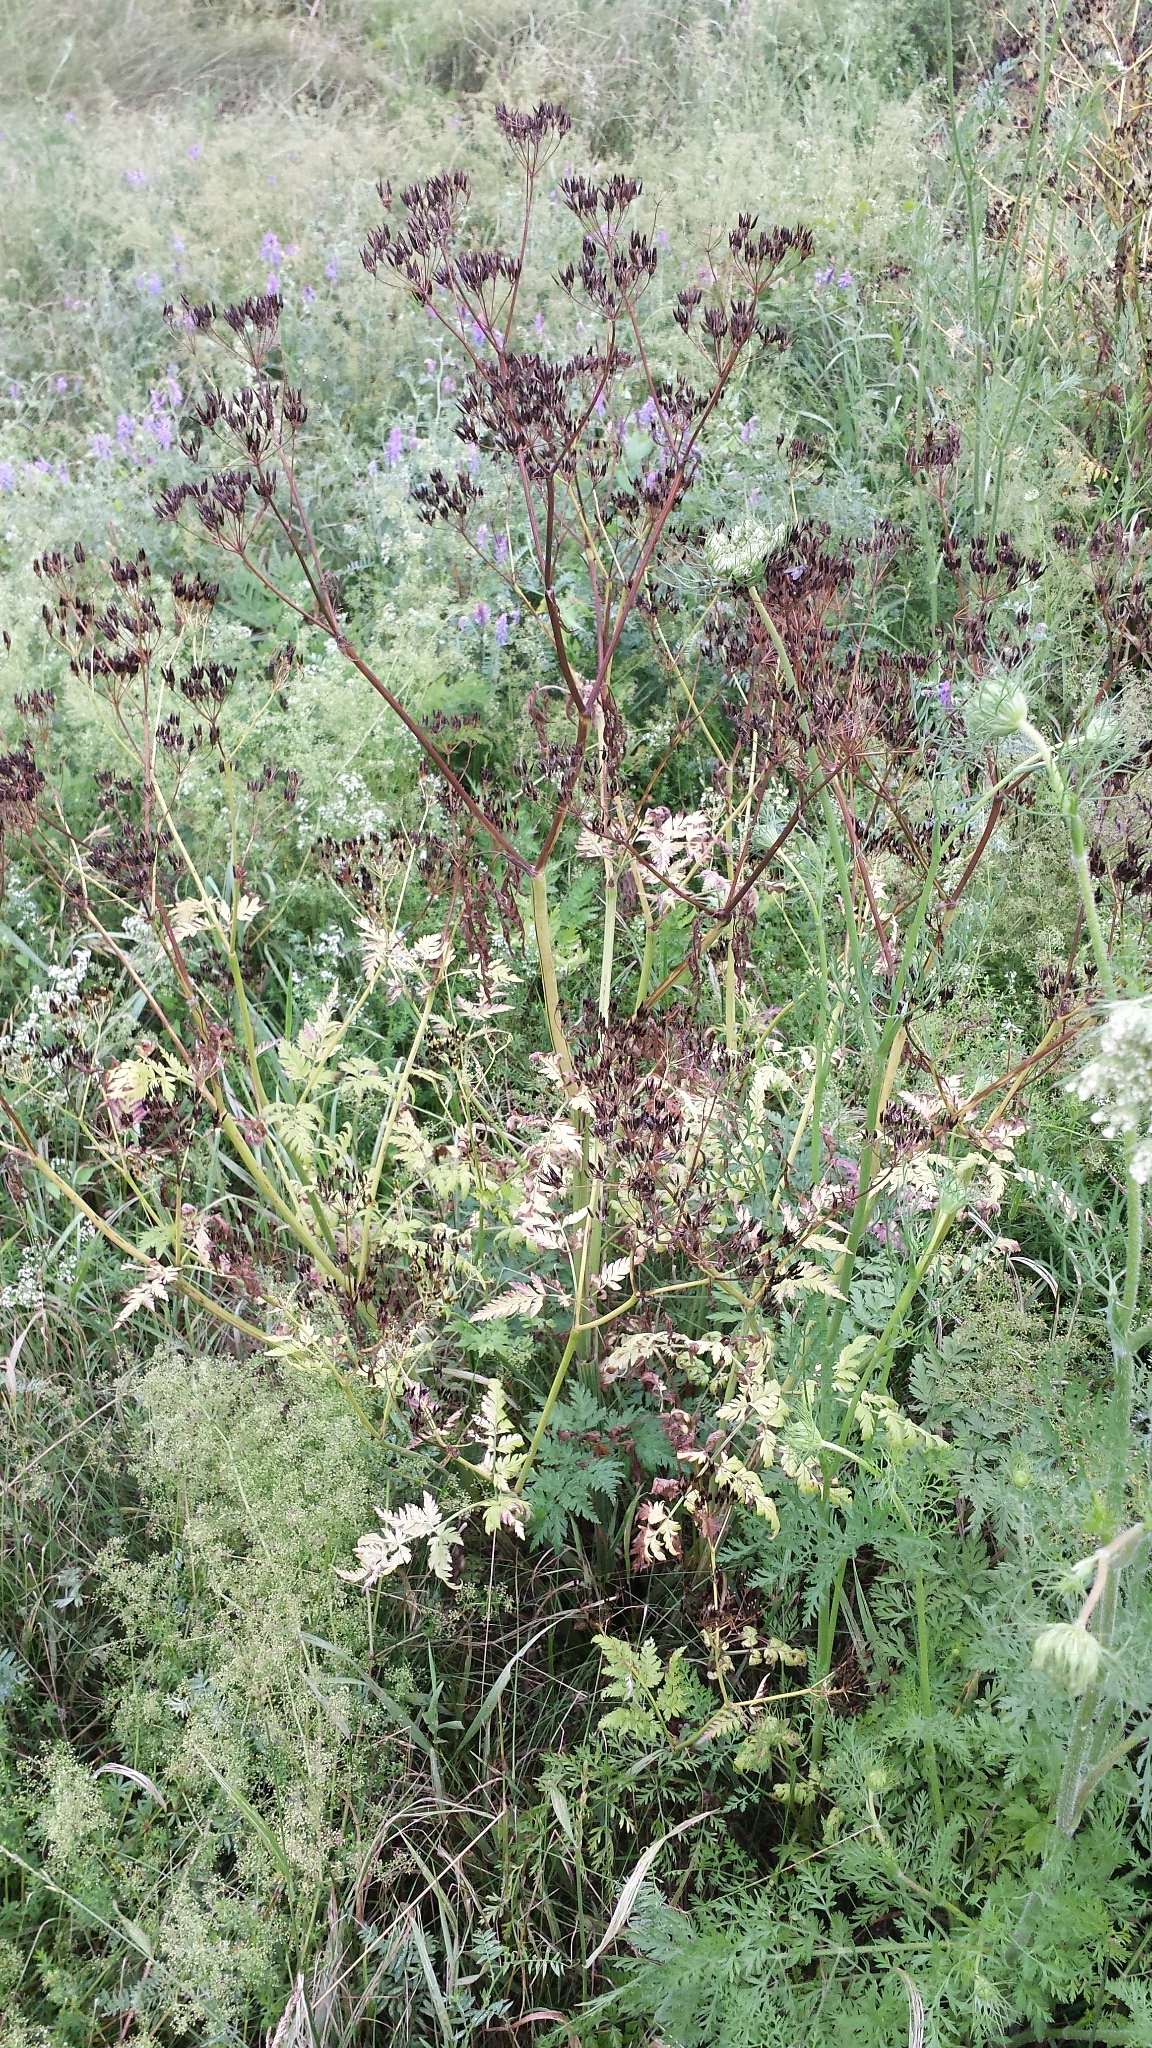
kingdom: Plantae
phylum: Tracheophyta
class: Magnoliopsida
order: Apiales
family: Apiaceae
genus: Anthriscus
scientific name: Anthriscus sylvestris
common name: Cow parsley
